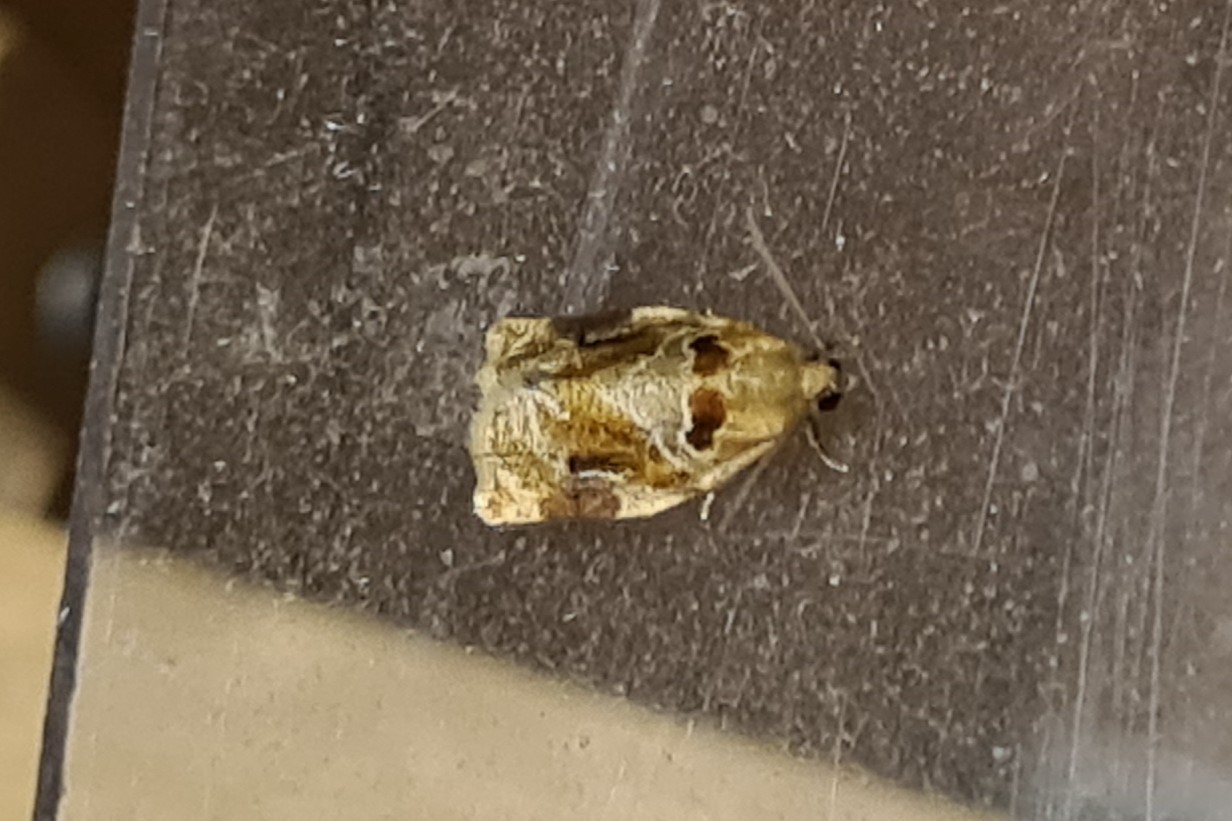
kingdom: Animalia
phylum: Arthropoda
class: Insecta
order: Lepidoptera
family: Tortricidae
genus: Archips
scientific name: Archips xylosteana
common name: Variegated golden tortrix
